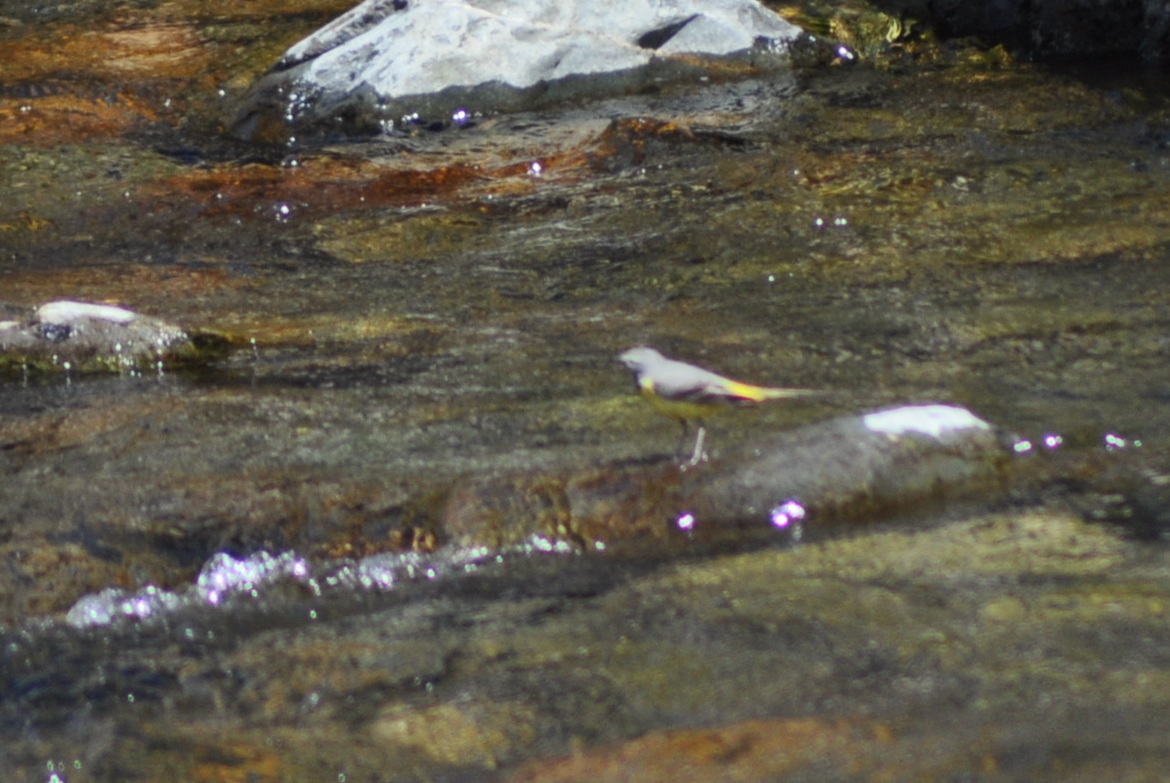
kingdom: Animalia
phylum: Chordata
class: Aves
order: Passeriformes
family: Motacillidae
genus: Motacilla
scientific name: Motacilla cinerea
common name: Grey wagtail
